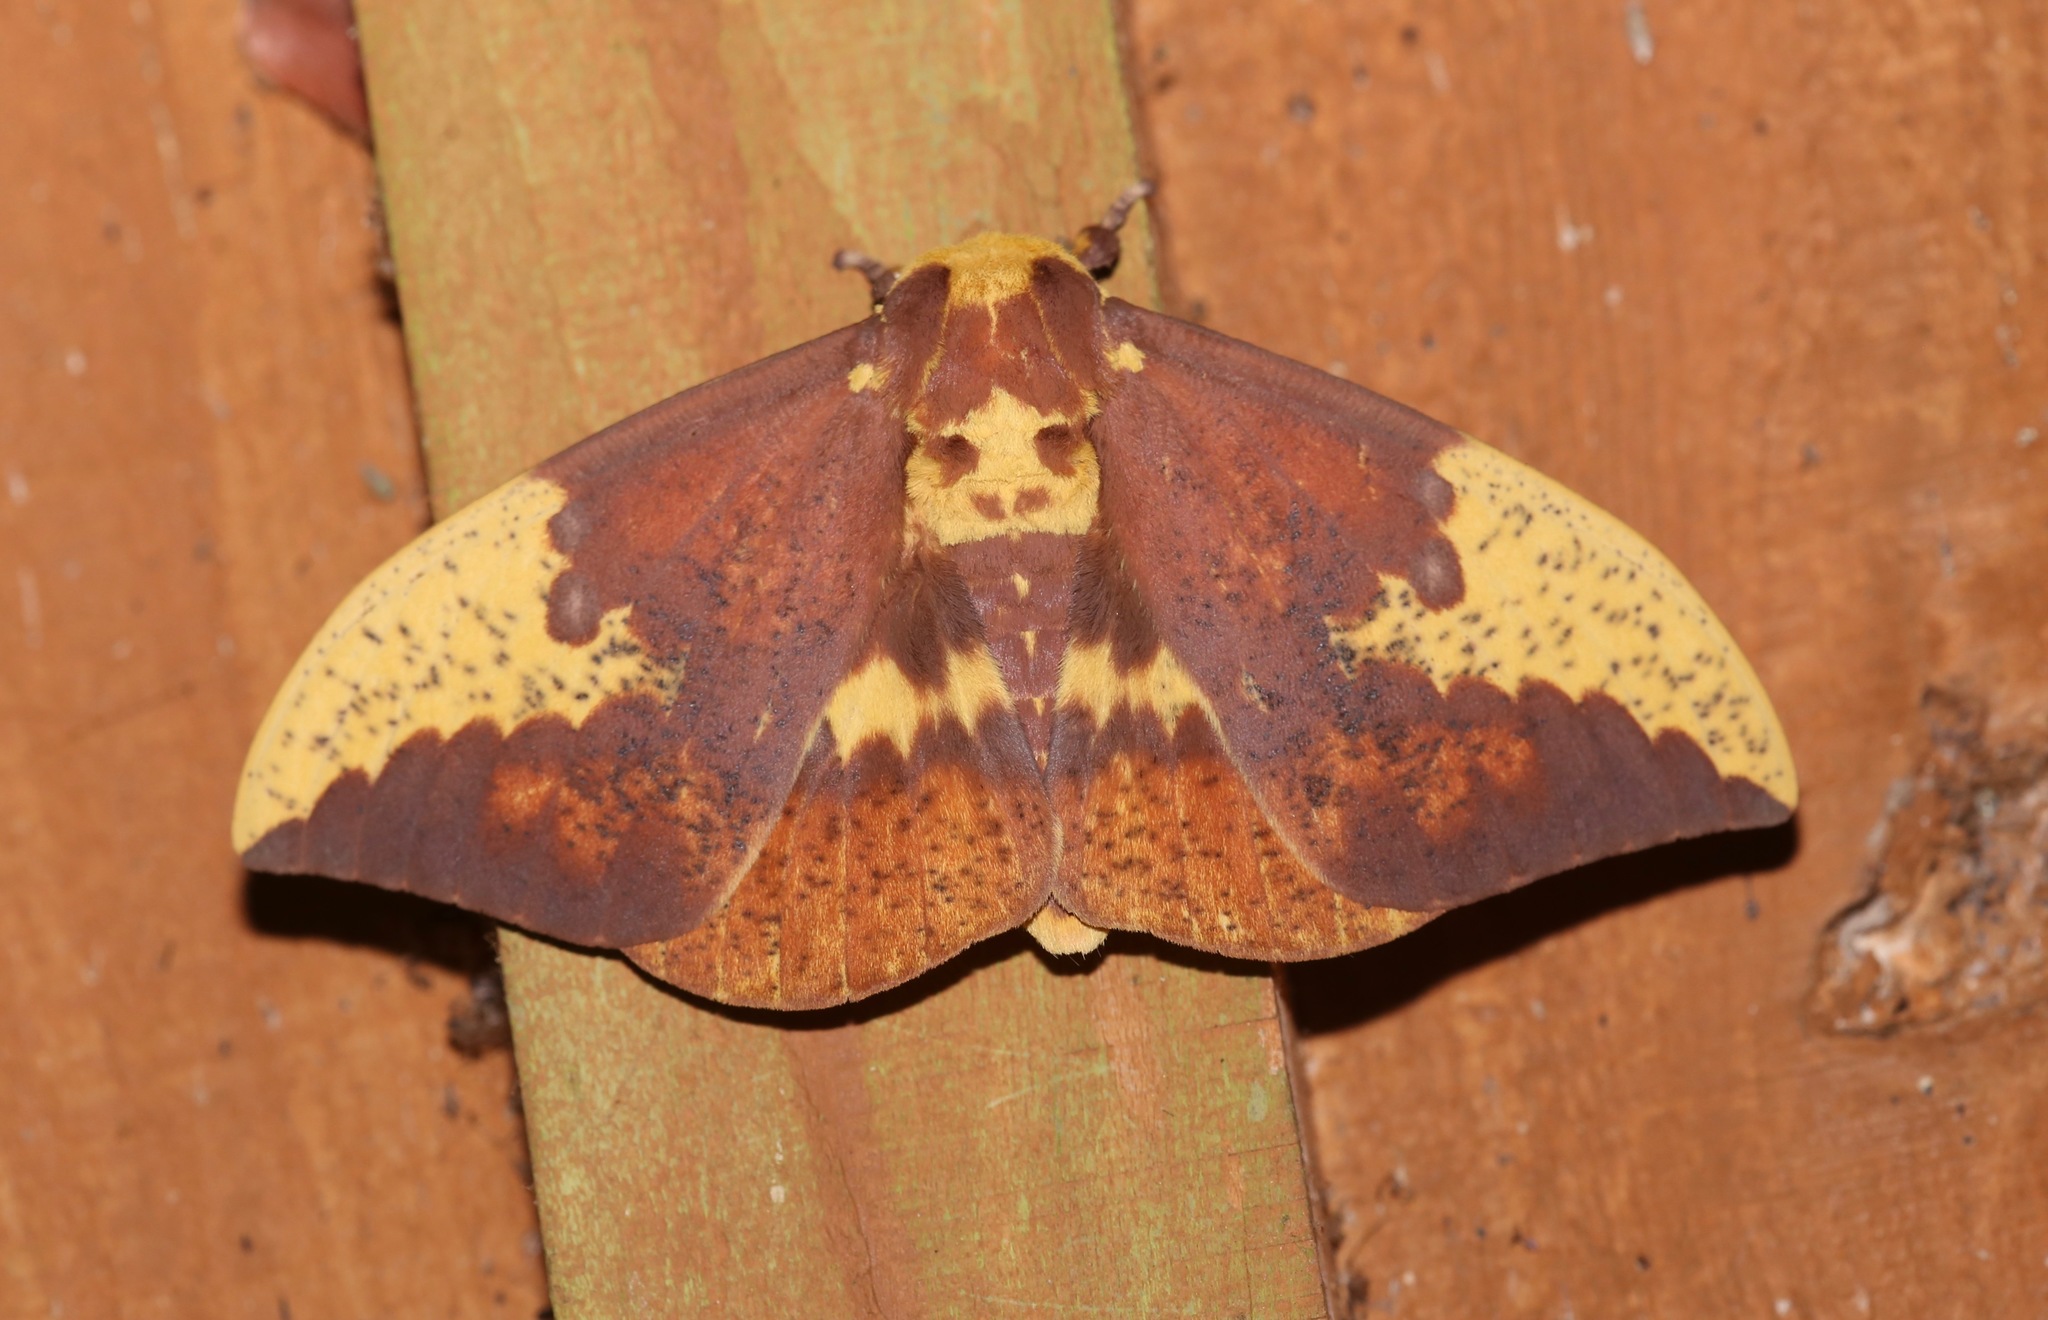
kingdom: Animalia
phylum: Arthropoda
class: Insecta
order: Lepidoptera
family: Saturniidae
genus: Eacles
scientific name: Eacles imperialis
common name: Imperial moth
